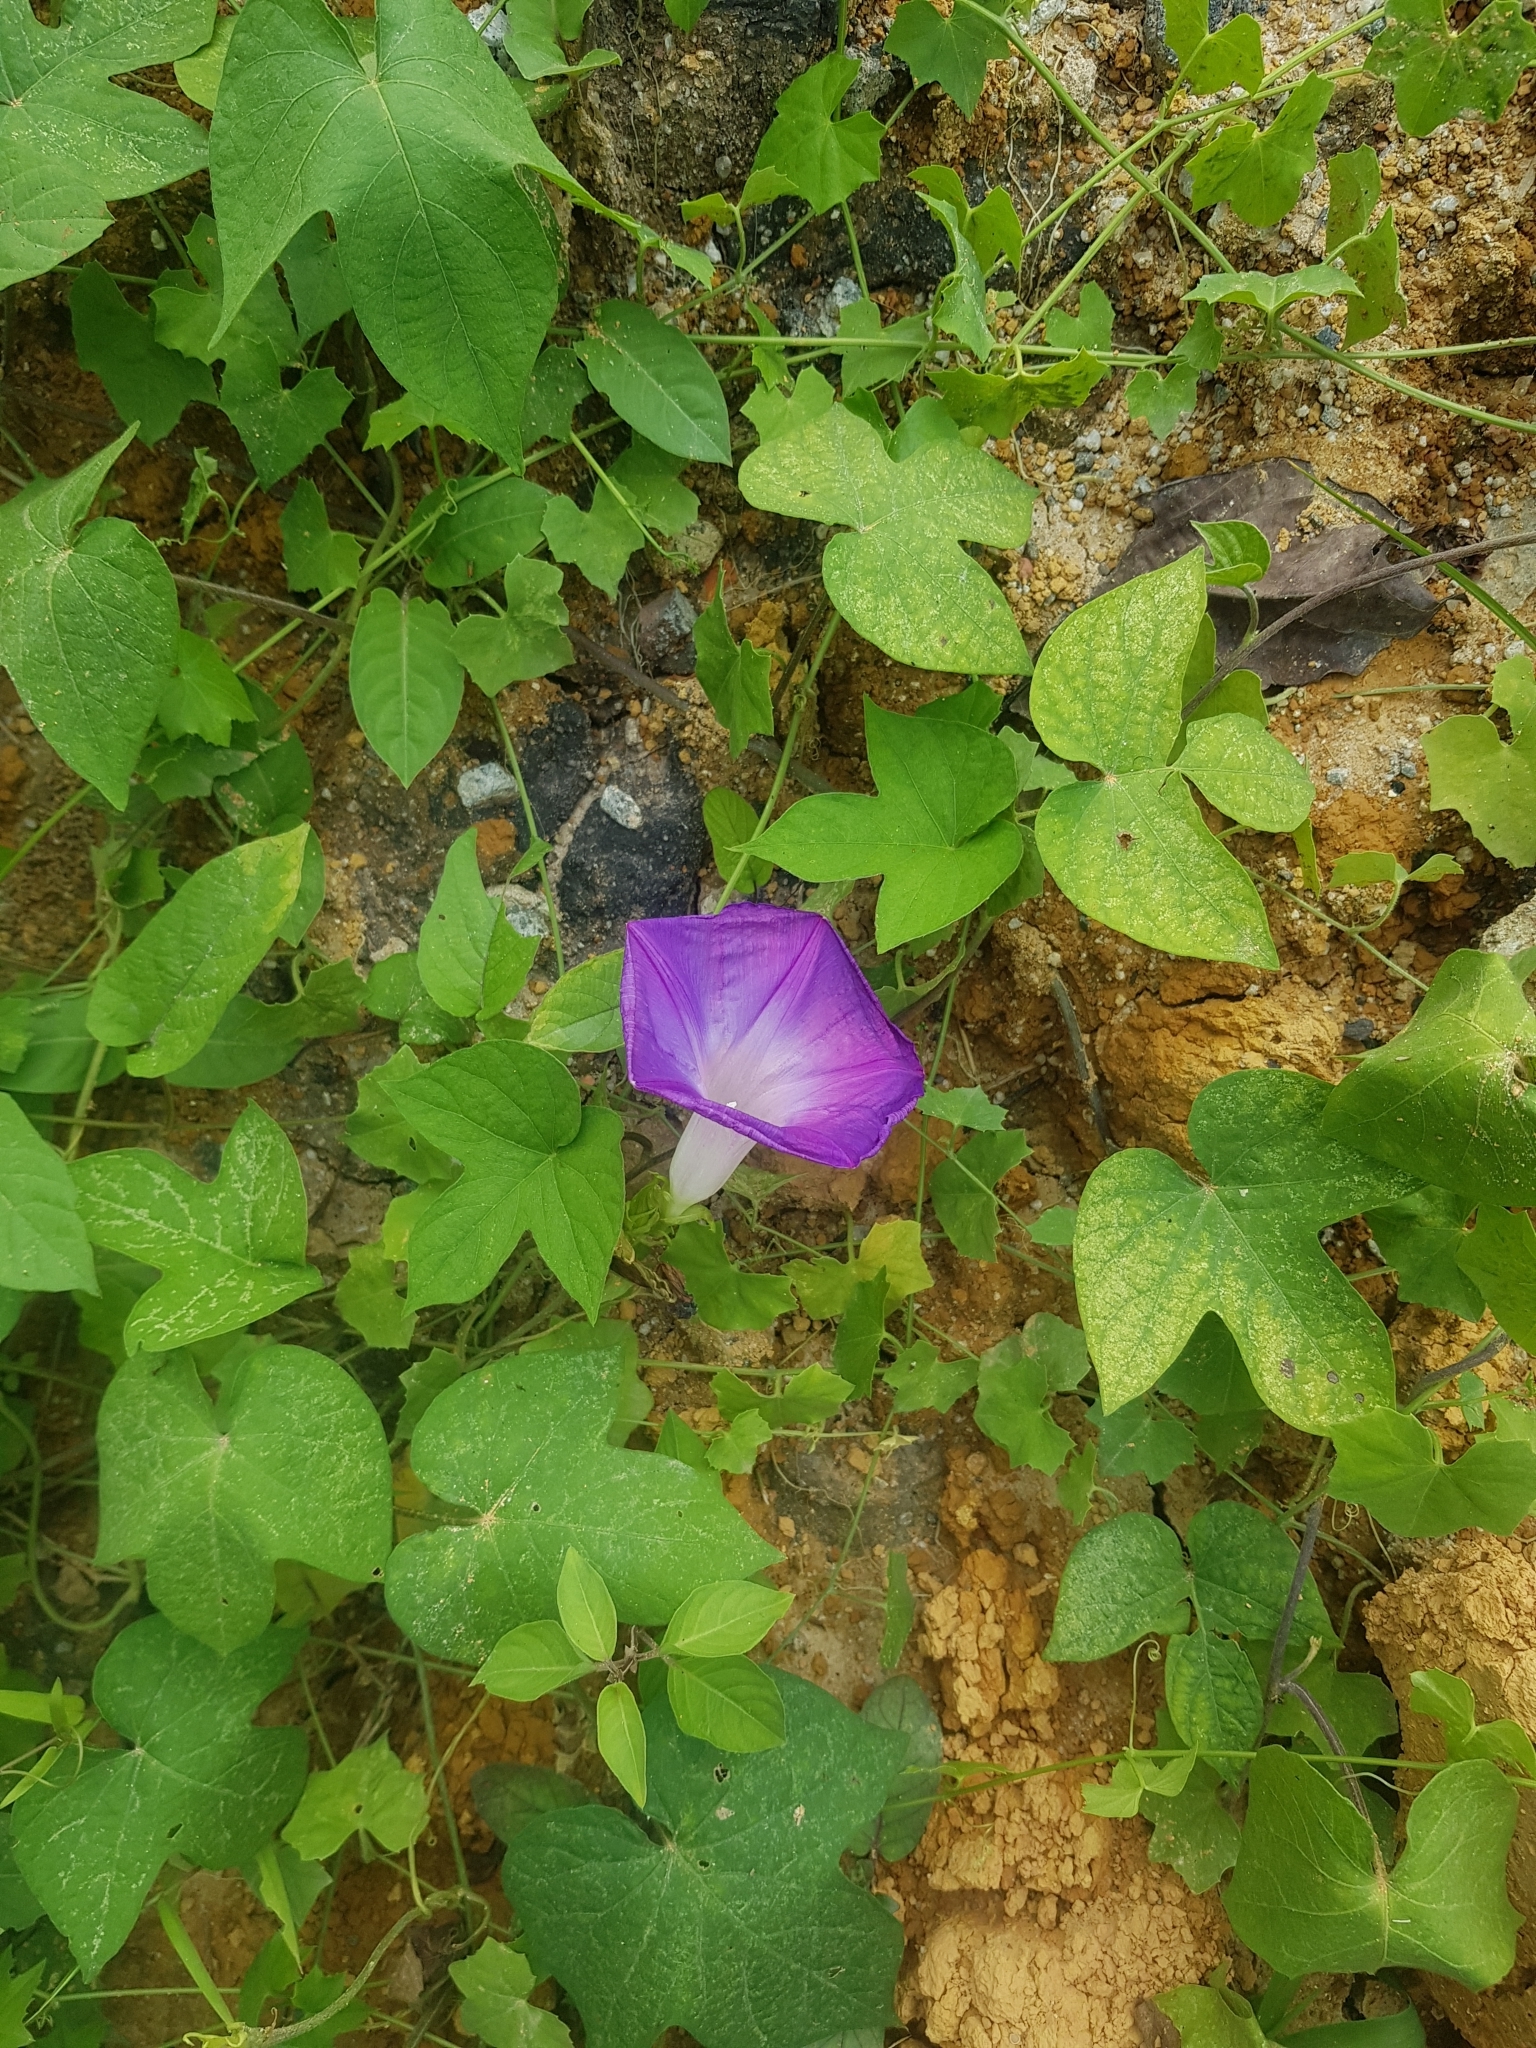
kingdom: Plantae
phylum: Tracheophyta
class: Magnoliopsida
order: Solanales
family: Convolvulaceae
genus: Ipomoea
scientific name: Ipomoea indica
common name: Blue dawnflower
